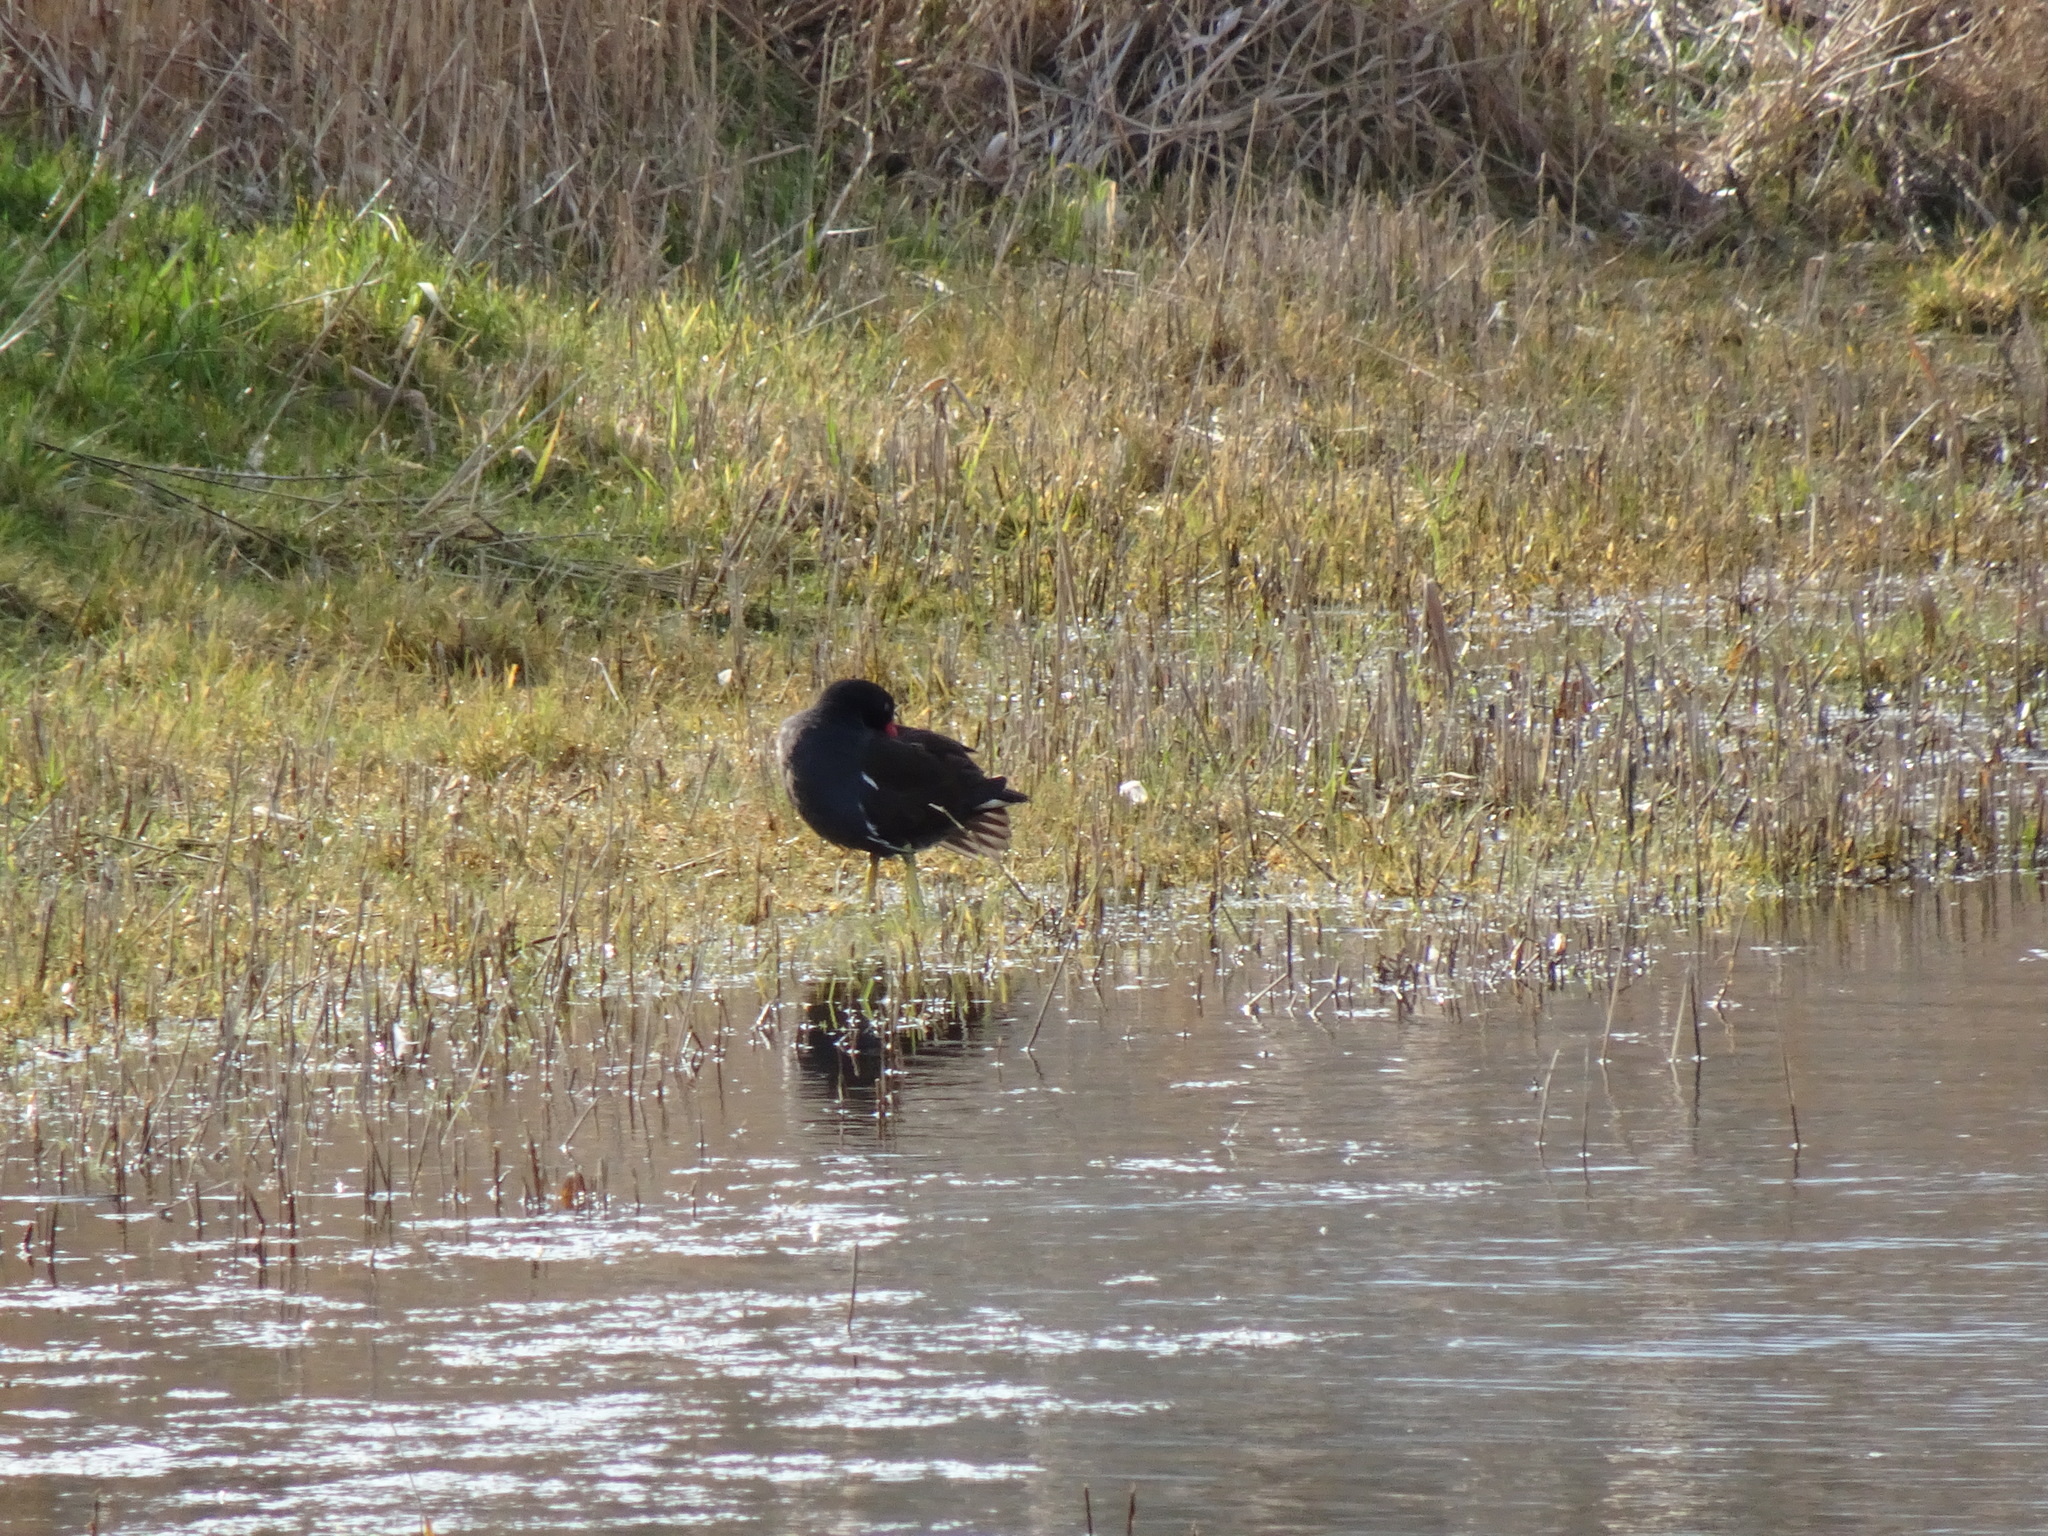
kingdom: Animalia
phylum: Chordata
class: Aves
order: Gruiformes
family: Rallidae
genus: Gallinula
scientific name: Gallinula chloropus
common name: Common moorhen
